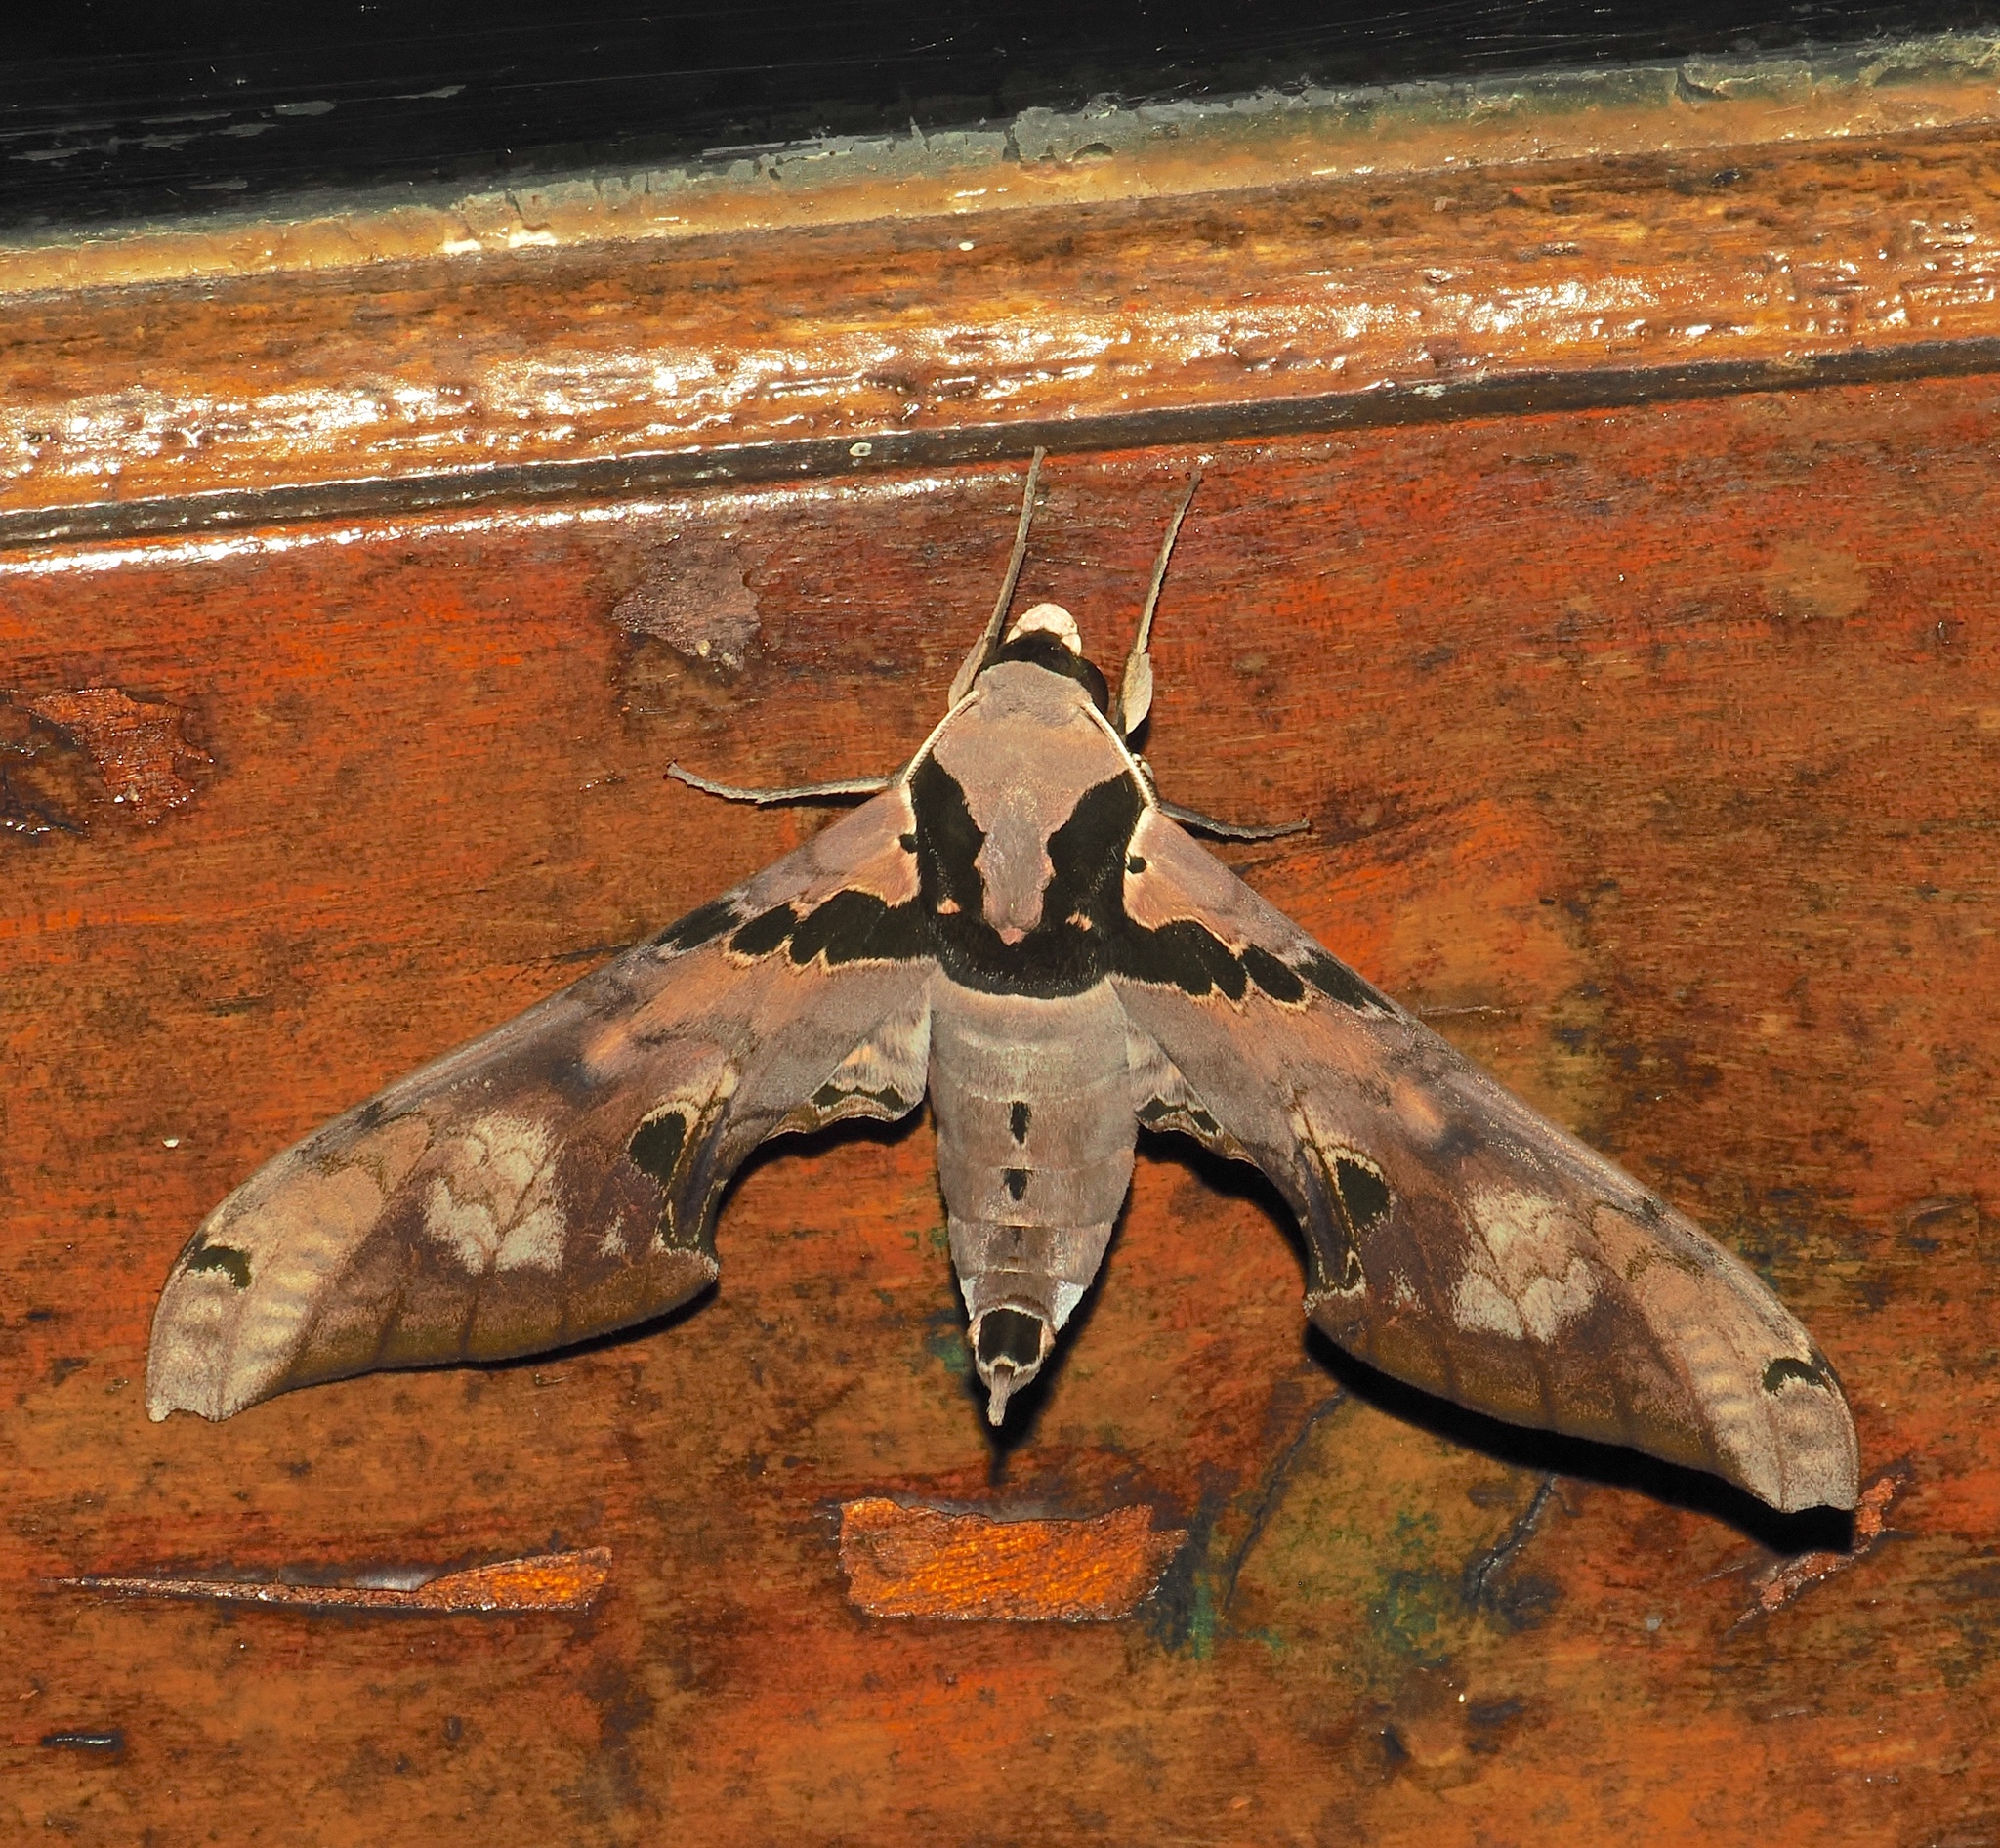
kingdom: Animalia
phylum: Arthropoda
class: Insecta
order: Lepidoptera
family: Sphingidae
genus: Adhemarius
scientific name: Adhemarius gannascus
